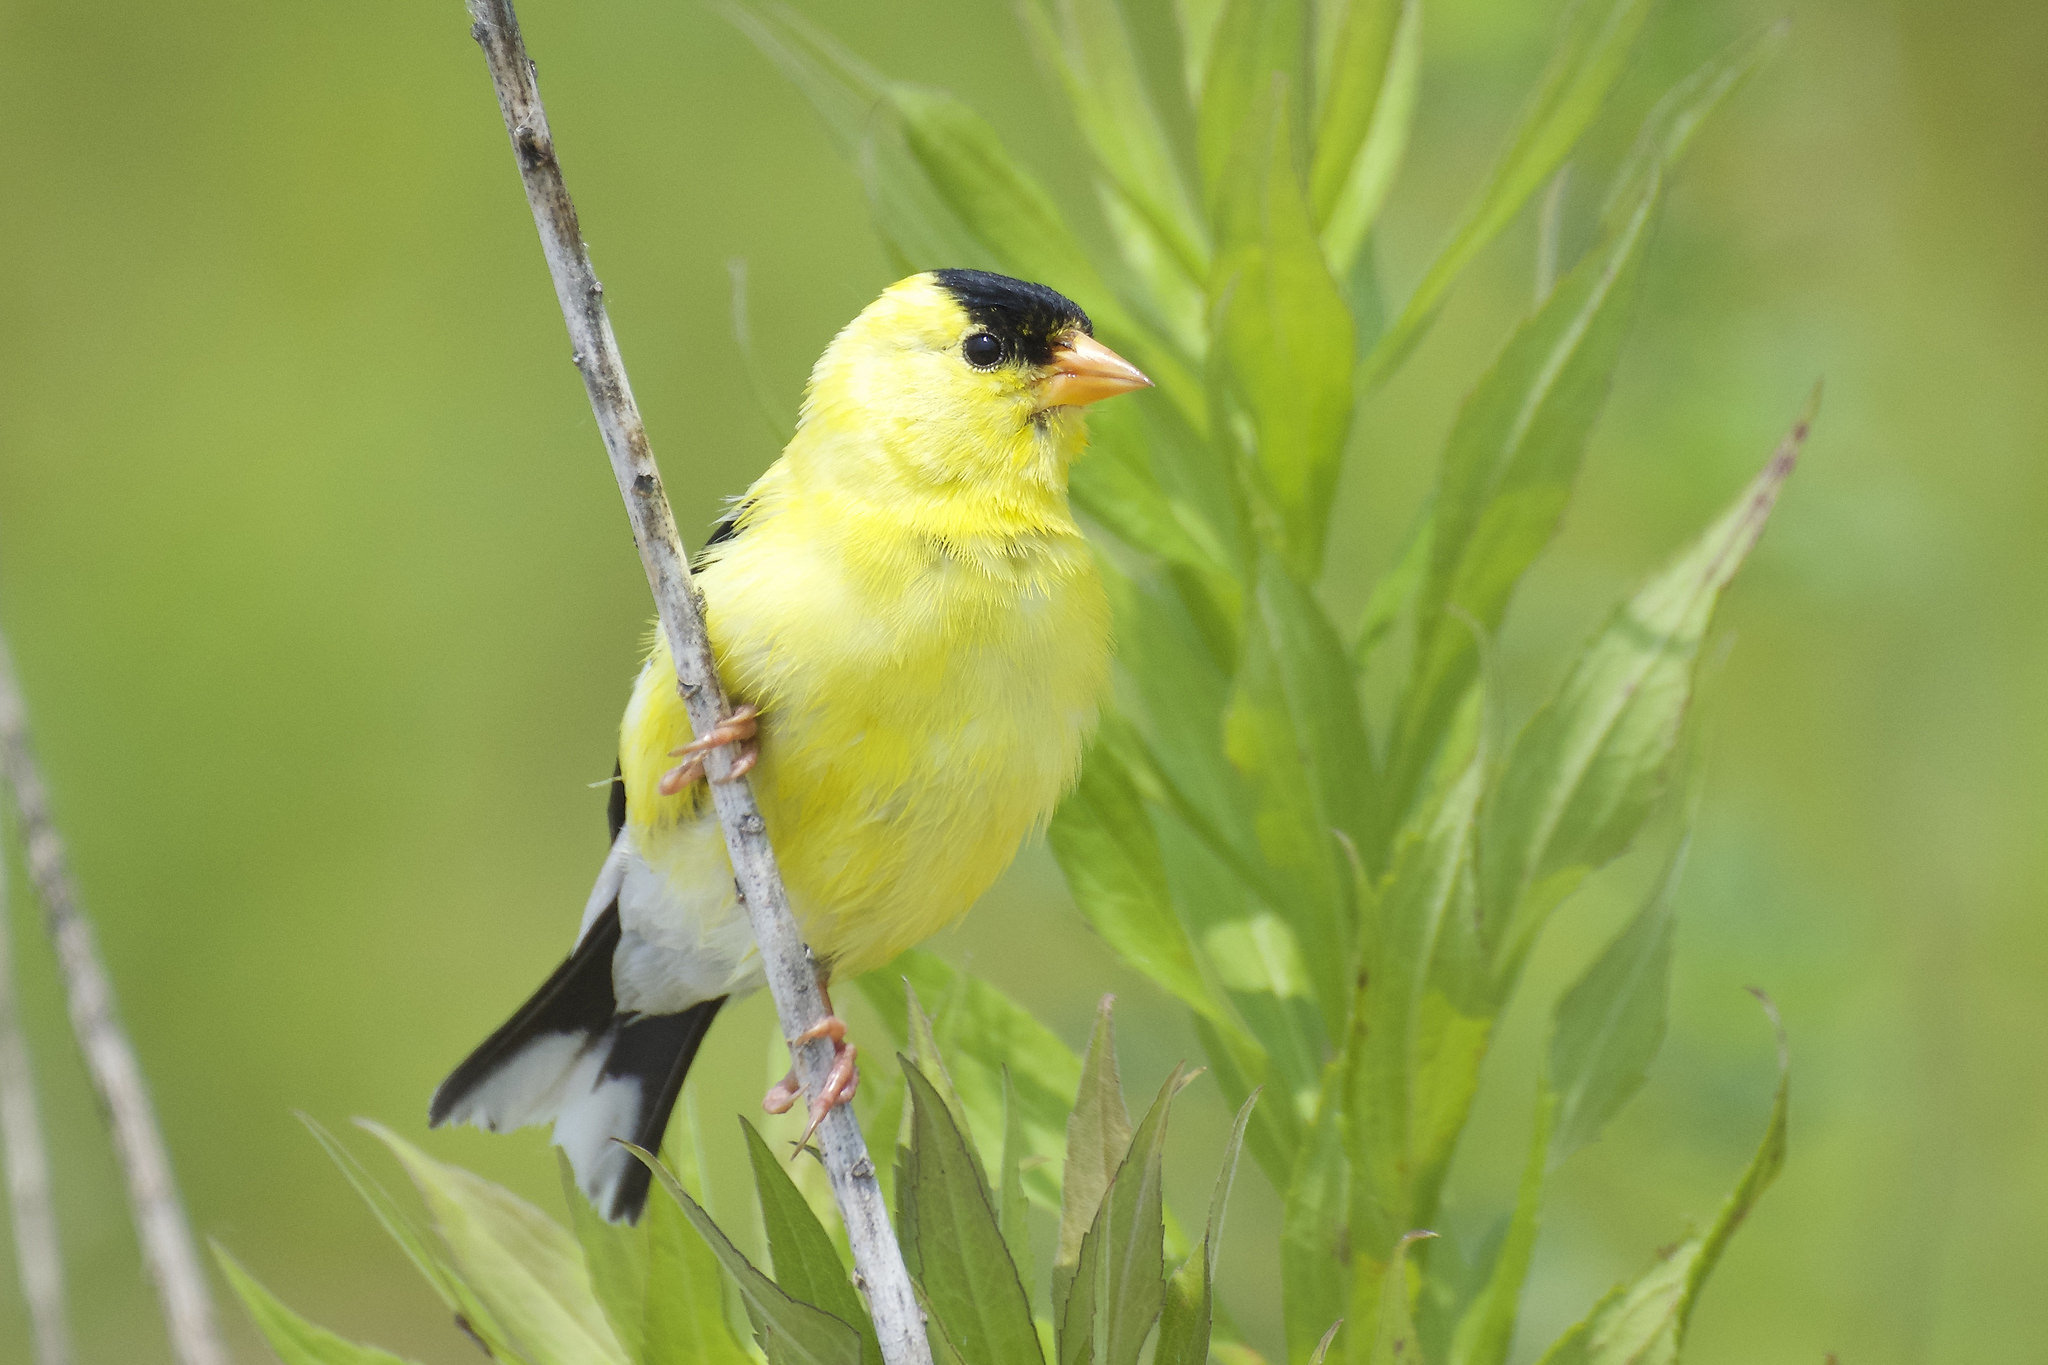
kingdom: Animalia
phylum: Chordata
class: Aves
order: Passeriformes
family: Fringillidae
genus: Spinus
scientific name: Spinus tristis
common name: American goldfinch
